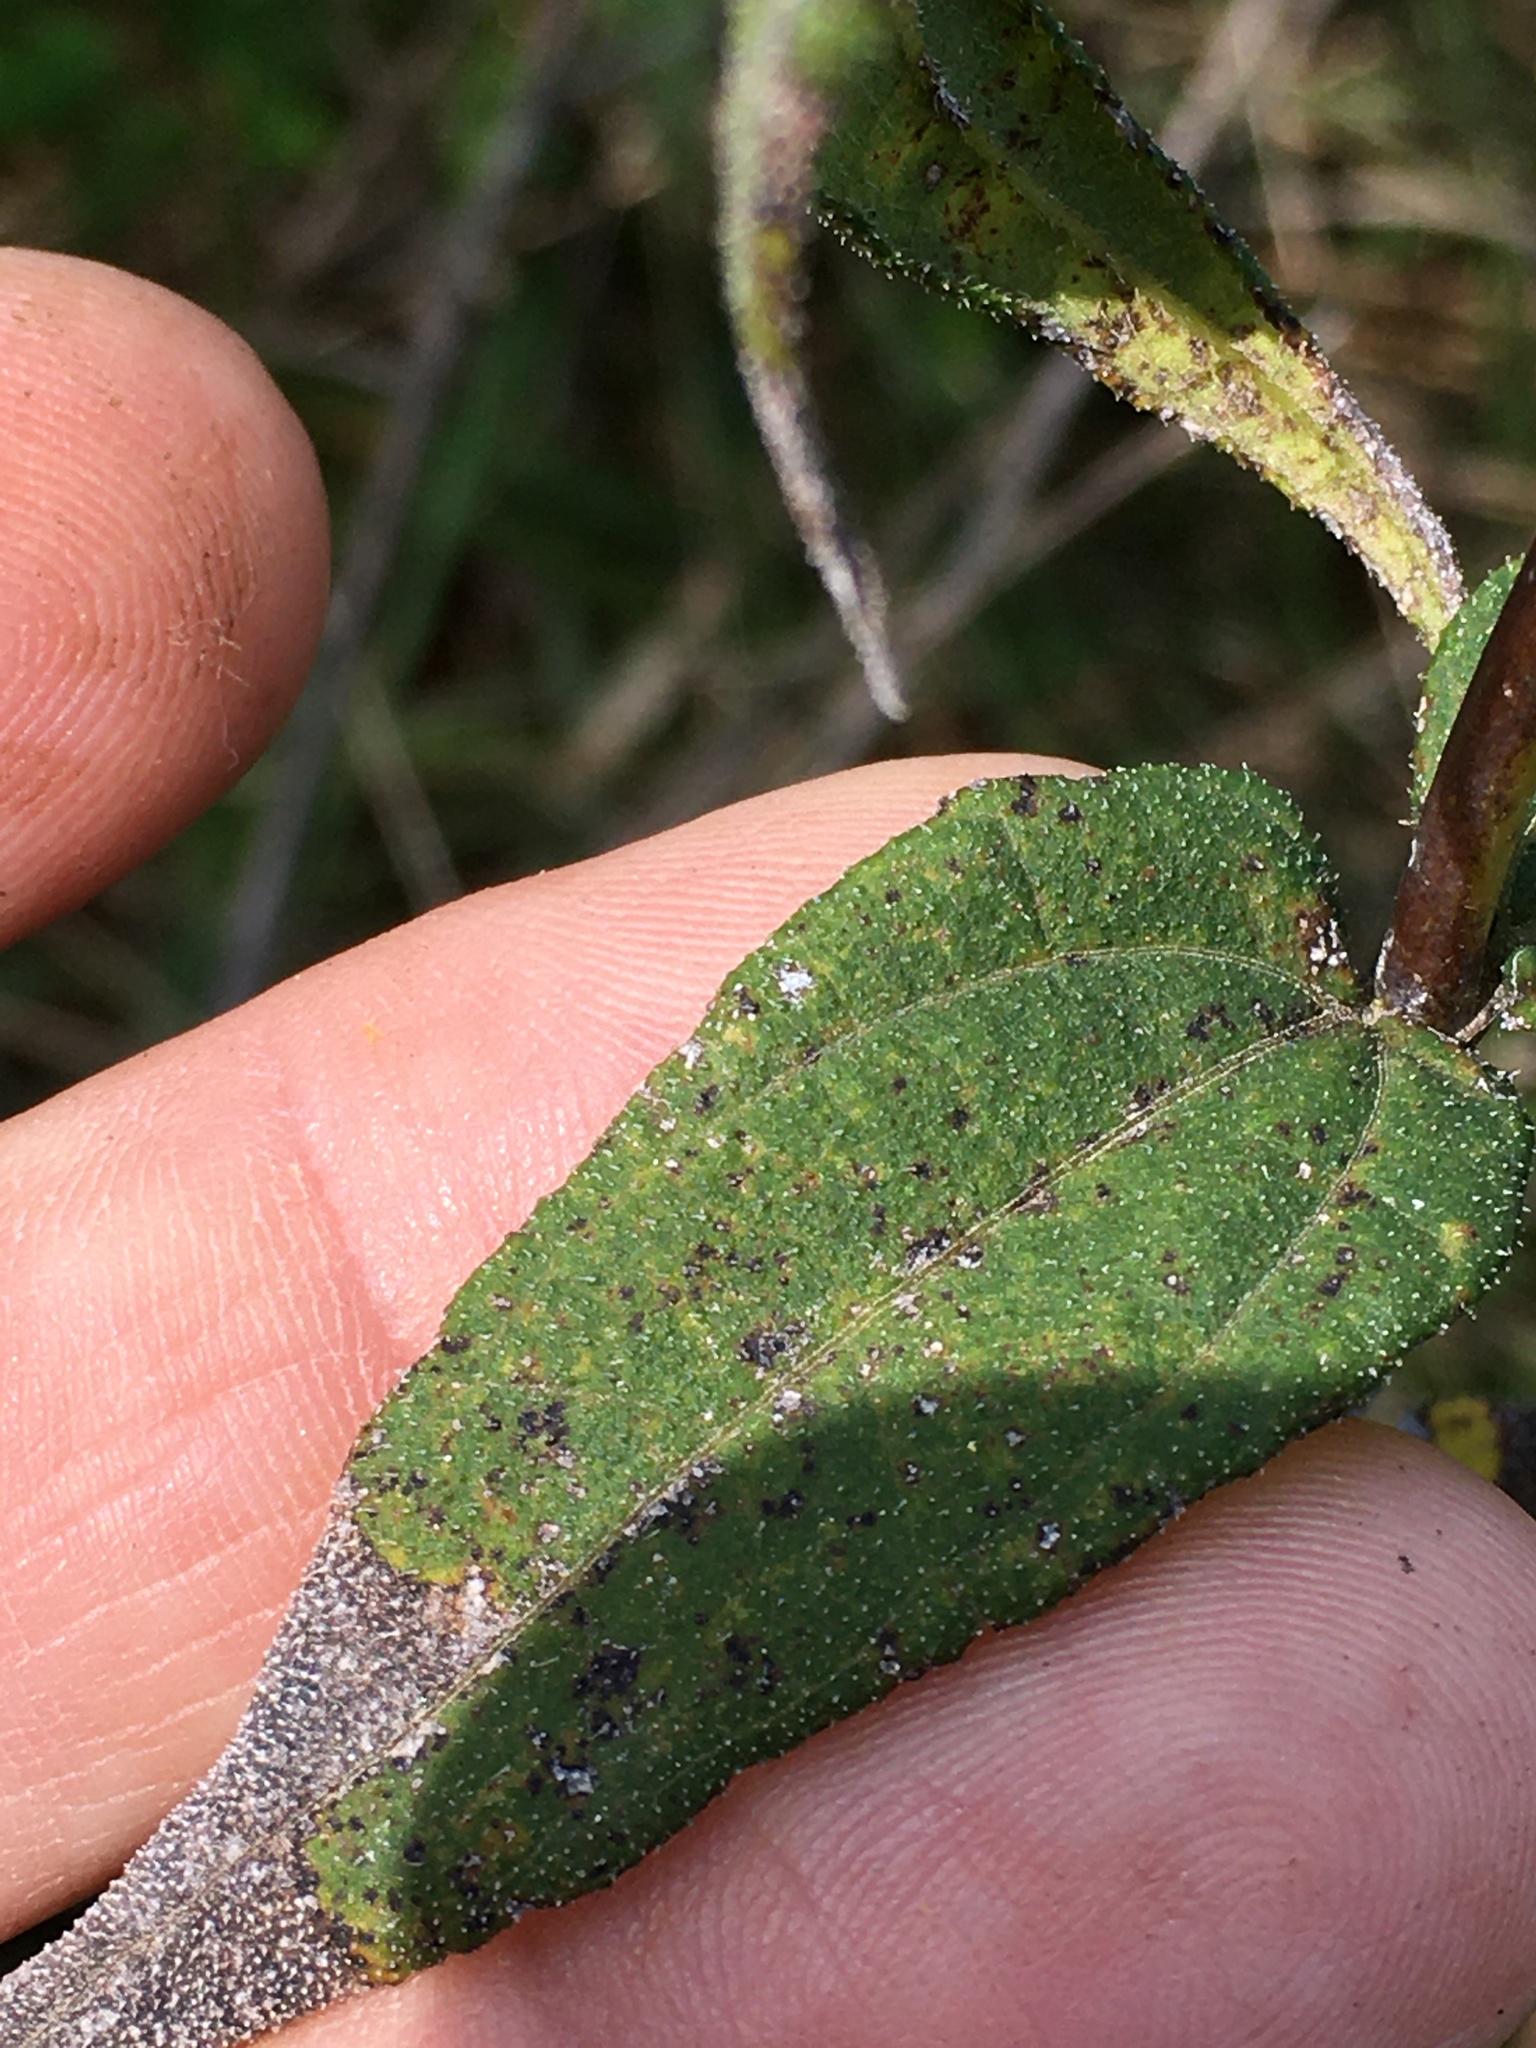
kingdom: Plantae
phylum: Tracheophyta
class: Magnoliopsida
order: Asterales
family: Asteraceae
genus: Helianthus
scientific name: Helianthus divaricatus
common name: Divergent sunflower
